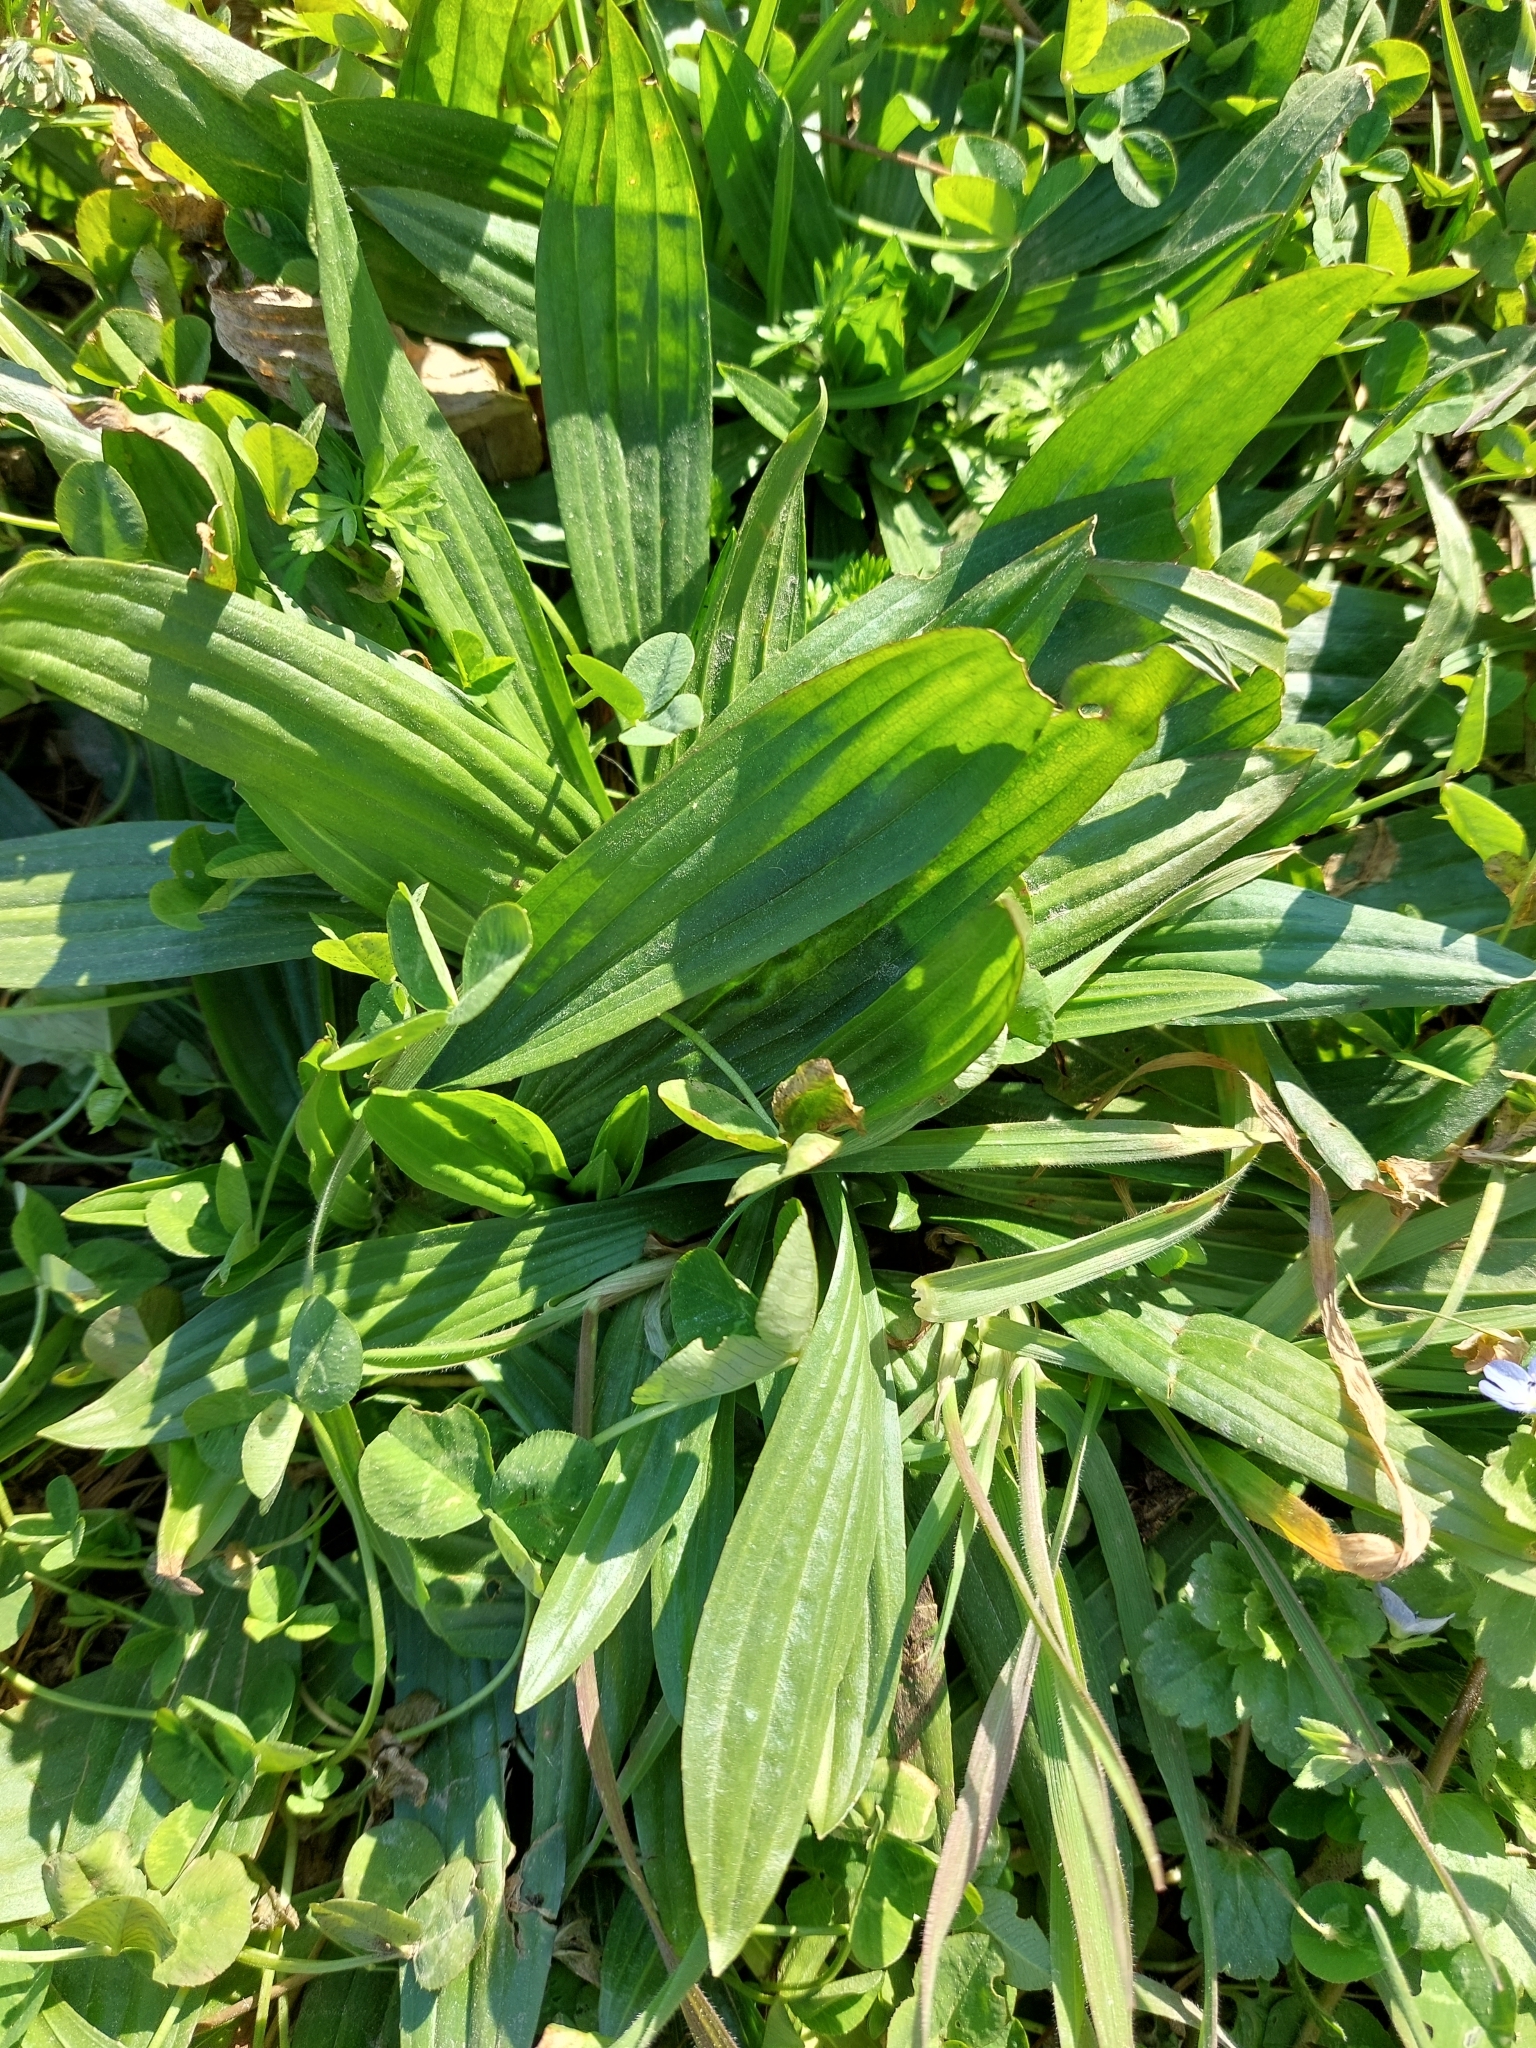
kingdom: Plantae
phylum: Tracheophyta
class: Magnoliopsida
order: Lamiales
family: Plantaginaceae
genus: Plantago
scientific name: Plantago lanceolata
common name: Ribwort plantain
